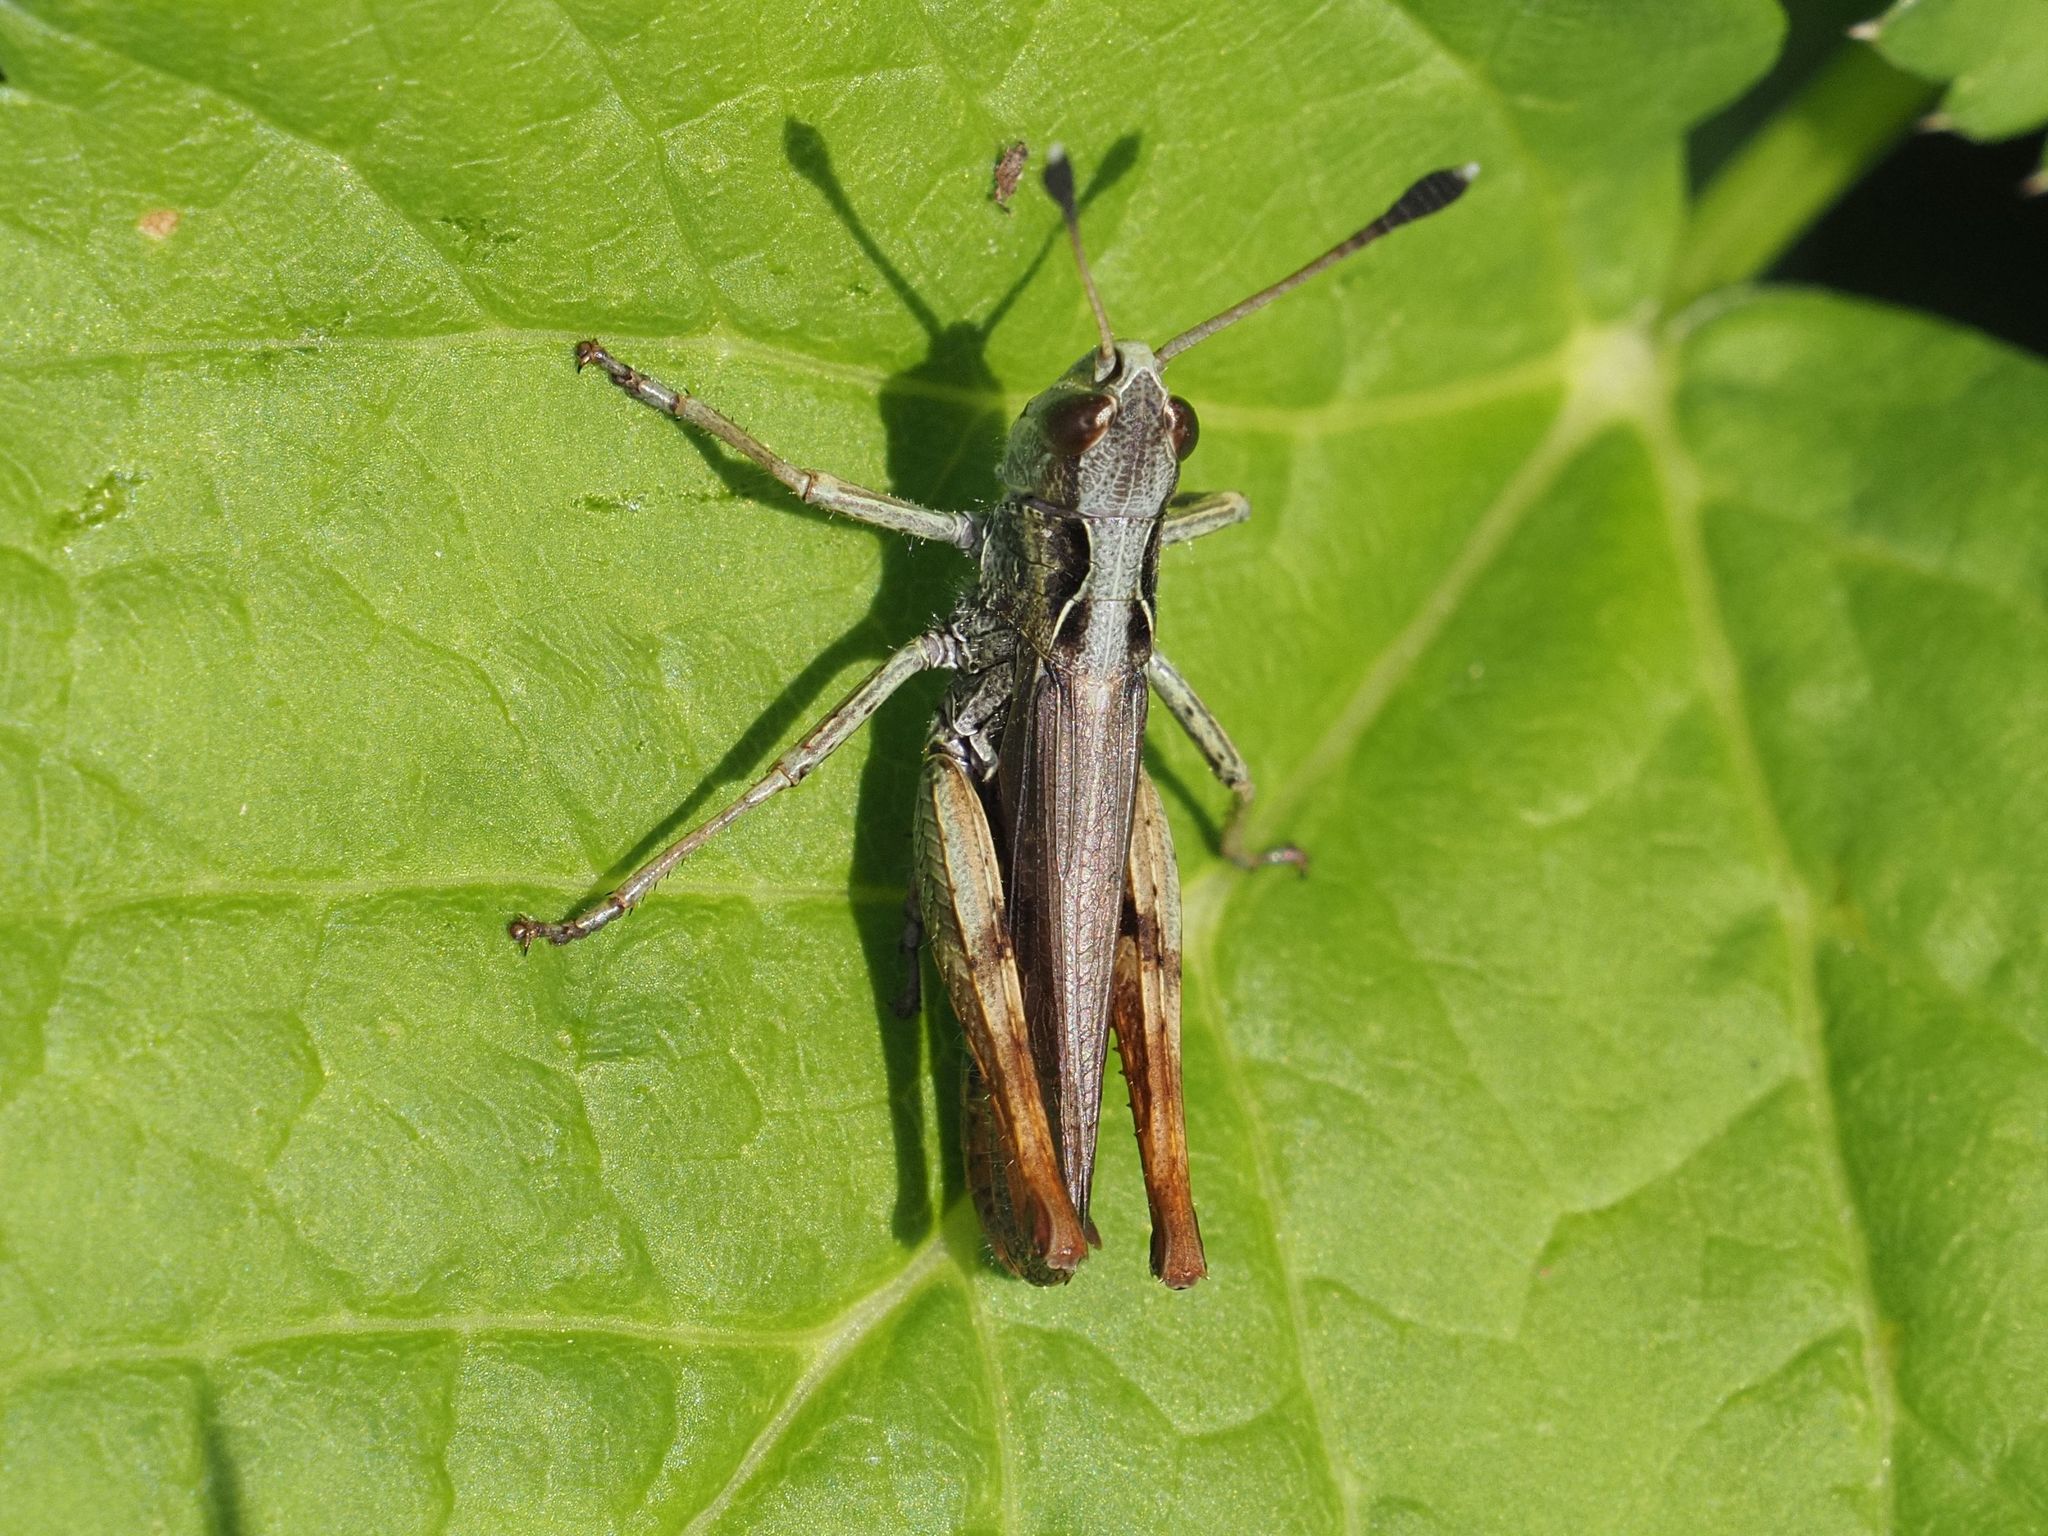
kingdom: Animalia
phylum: Arthropoda
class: Insecta
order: Orthoptera
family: Acrididae
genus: Gomphocerippus
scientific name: Gomphocerippus rufus
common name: Rufous grasshopper
